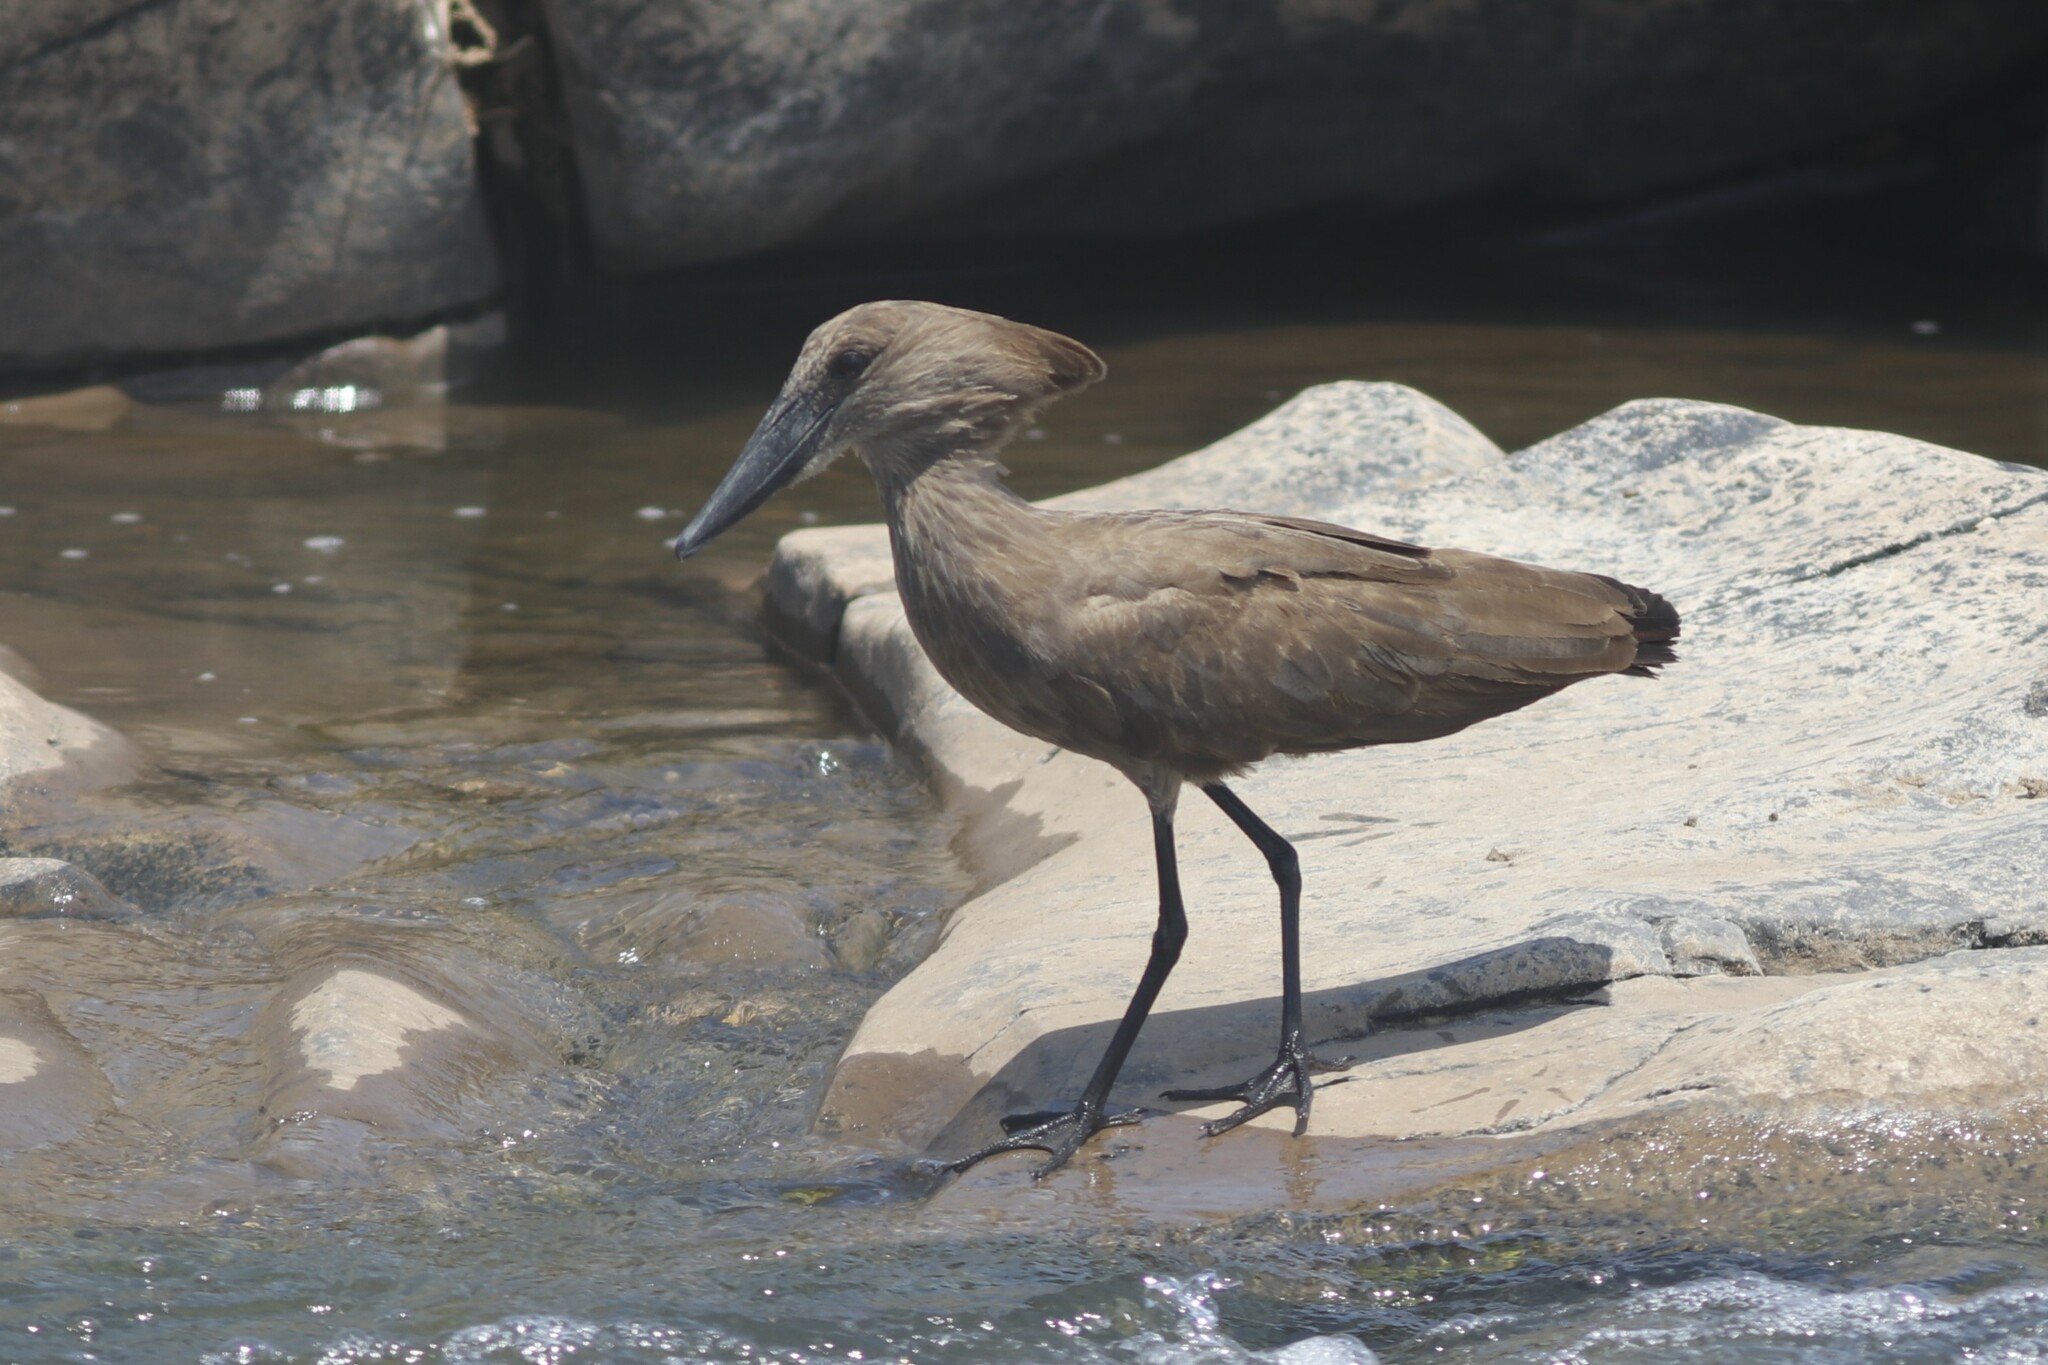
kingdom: Animalia
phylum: Chordata
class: Aves
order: Pelecaniformes
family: Scopidae
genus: Scopus
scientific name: Scopus umbretta
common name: Hamerkop
